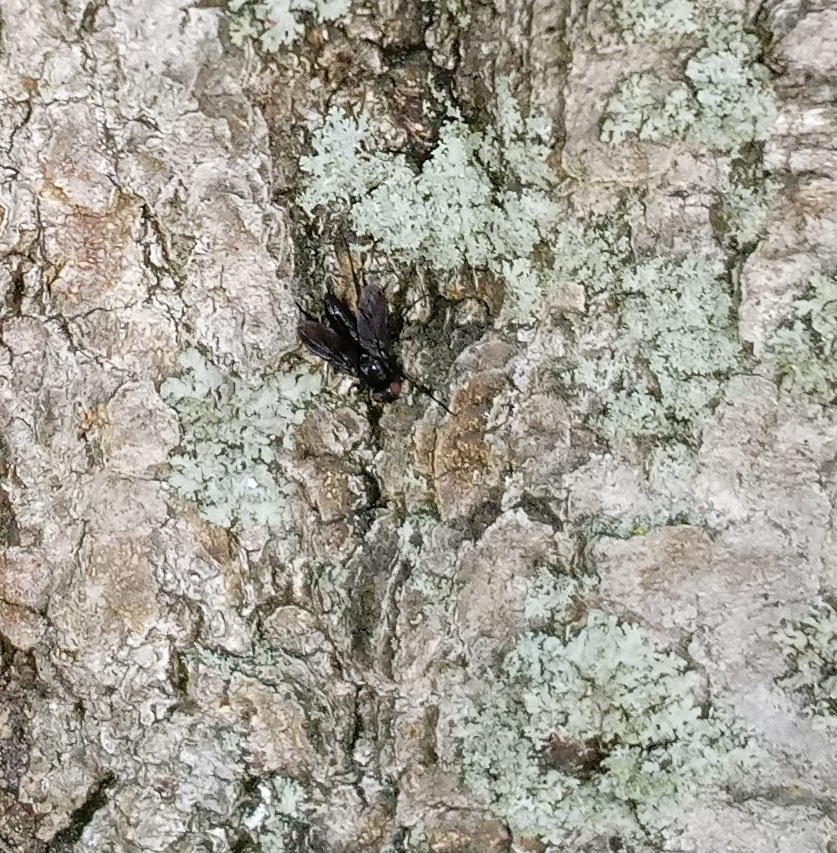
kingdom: Animalia
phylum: Arthropoda
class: Insecta
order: Diptera
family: Calliphoridae
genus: Melanophora
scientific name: Melanophora roralis
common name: Smoky-winged woodlouse-fly
